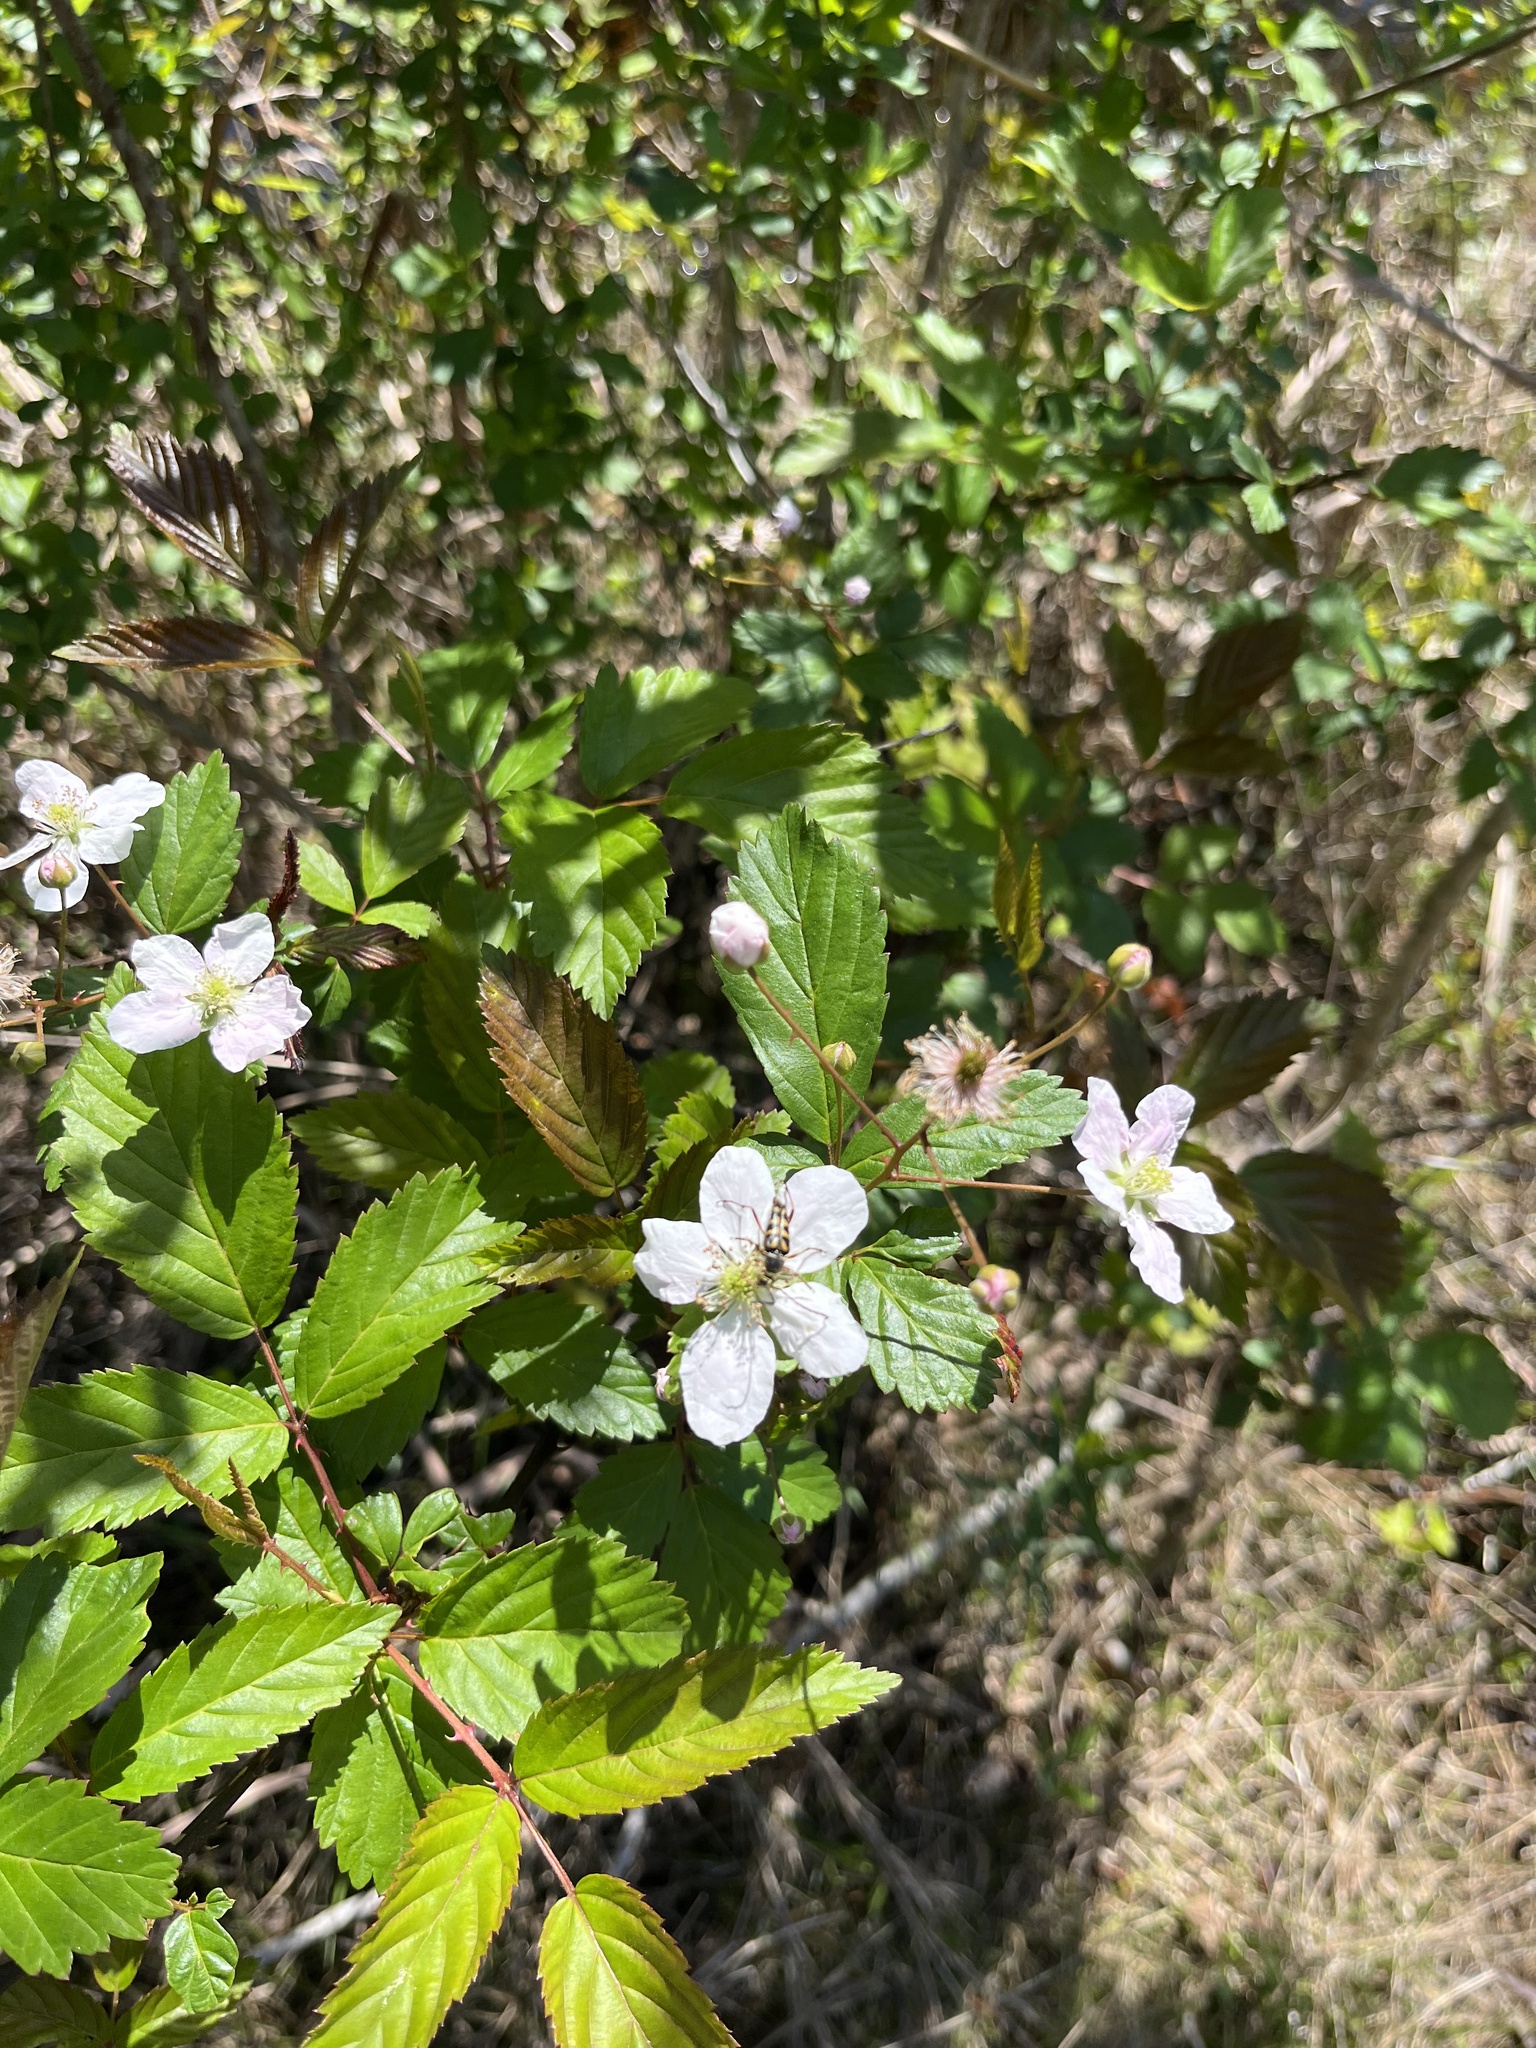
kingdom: Plantae
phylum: Tracheophyta
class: Magnoliopsida
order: Rosales
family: Rosaceae
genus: Rubus
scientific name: Rubus trivialis
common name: Southern dewberry
